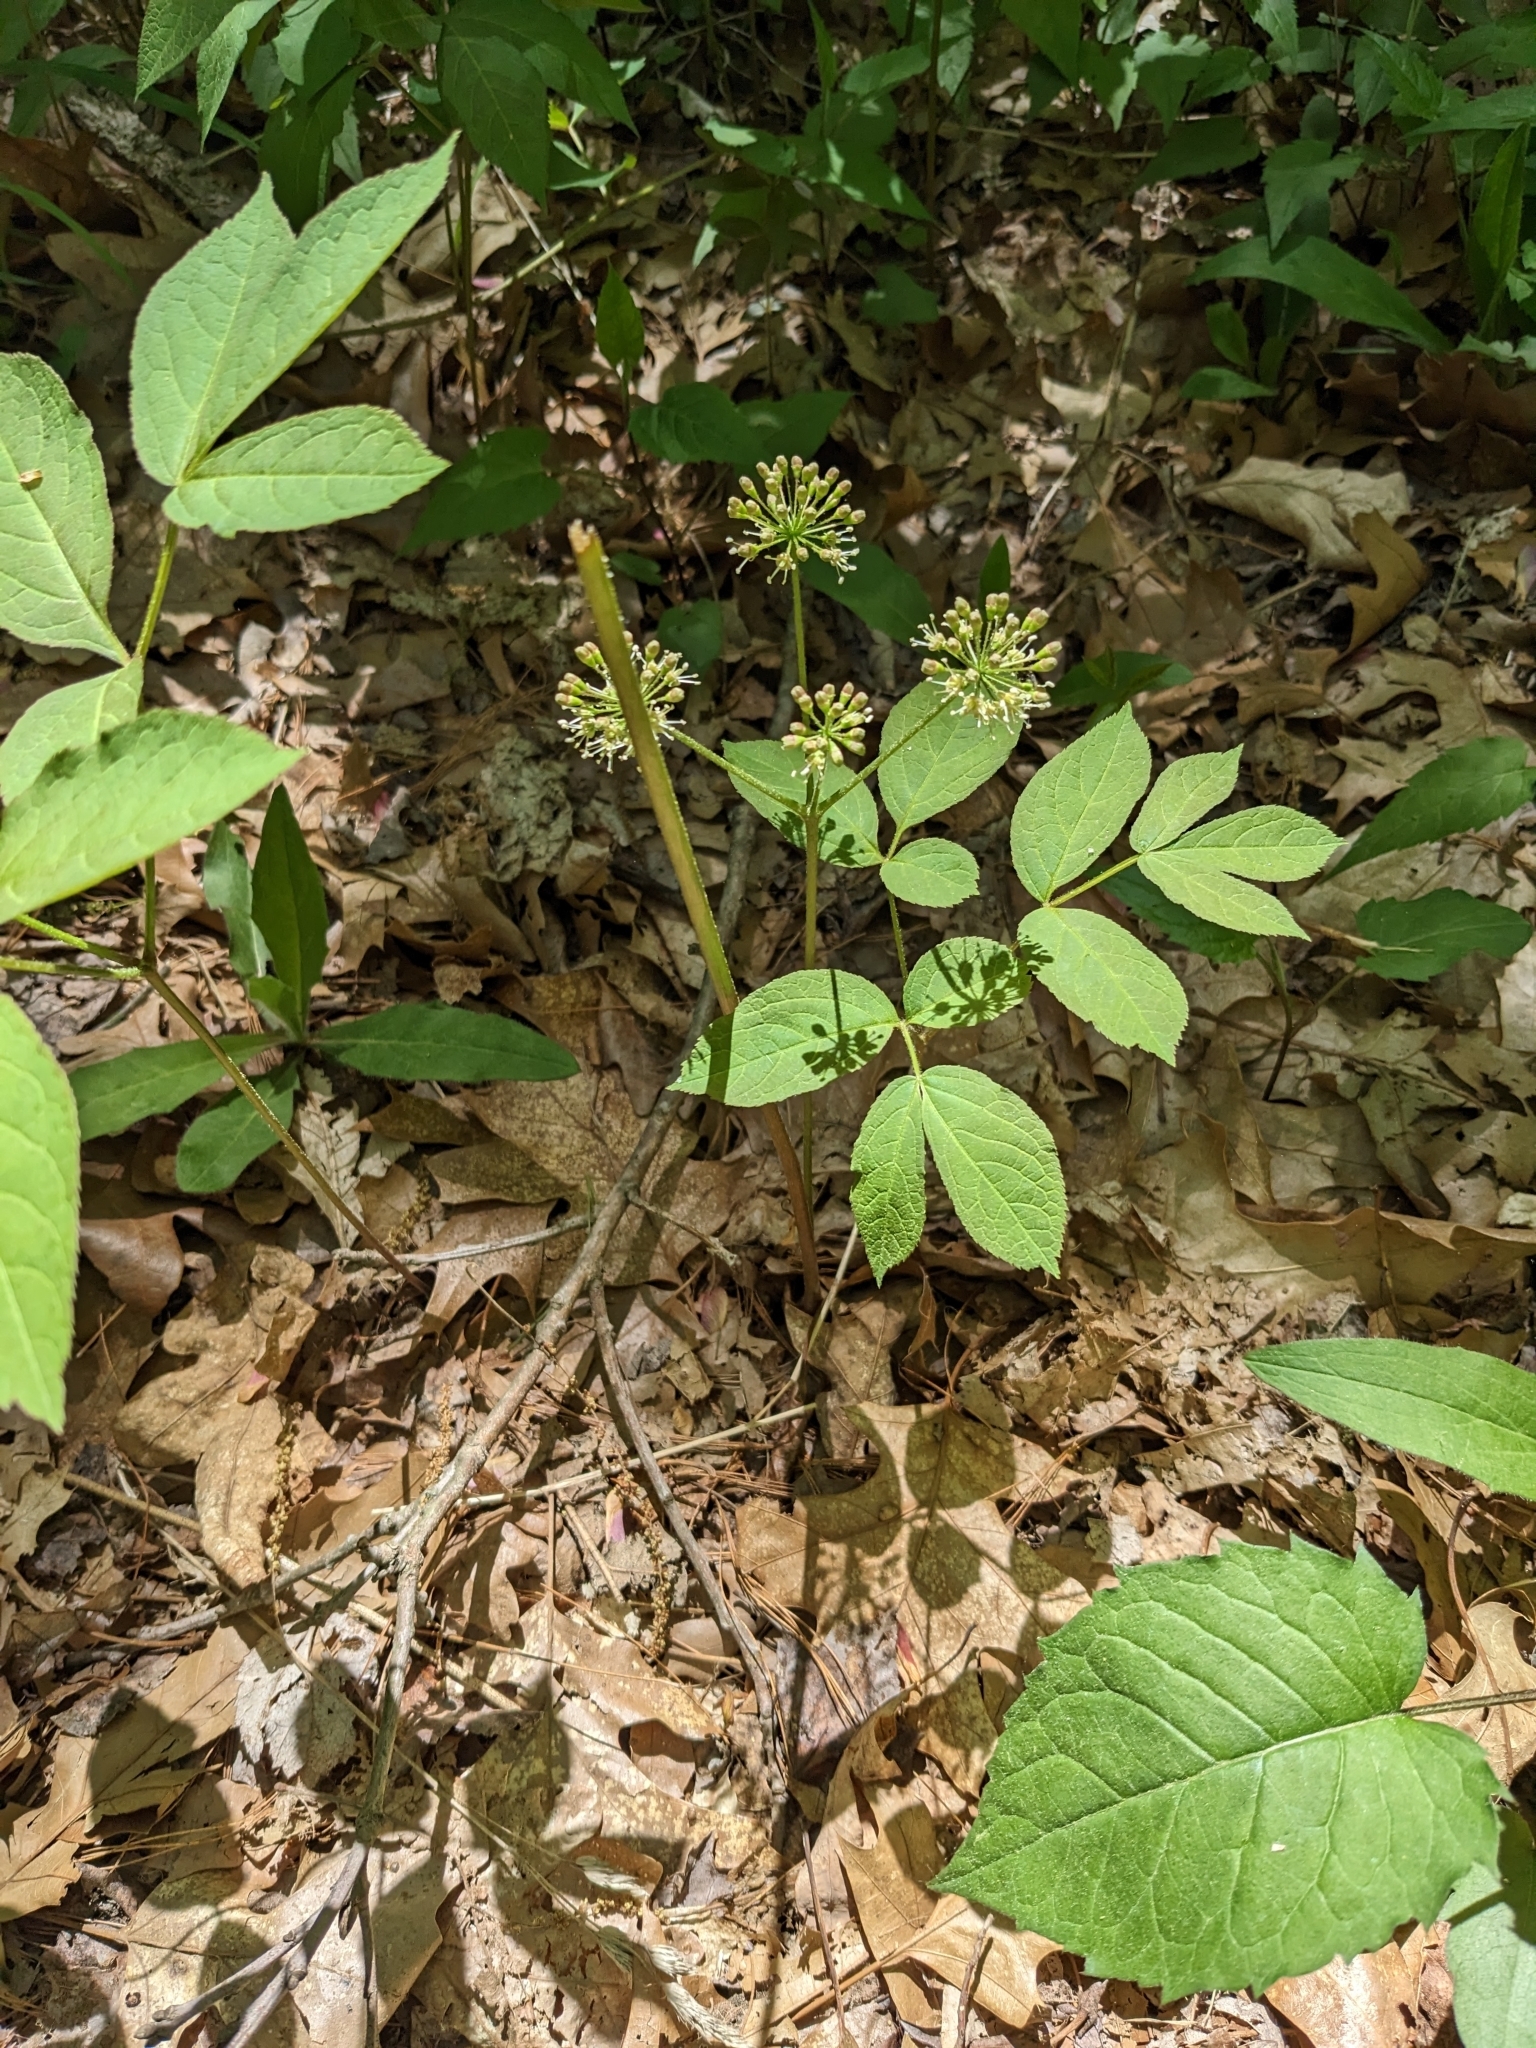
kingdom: Plantae
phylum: Tracheophyta
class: Magnoliopsida
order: Apiales
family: Araliaceae
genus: Aralia
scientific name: Aralia nudicaulis
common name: Wild sarsaparilla
